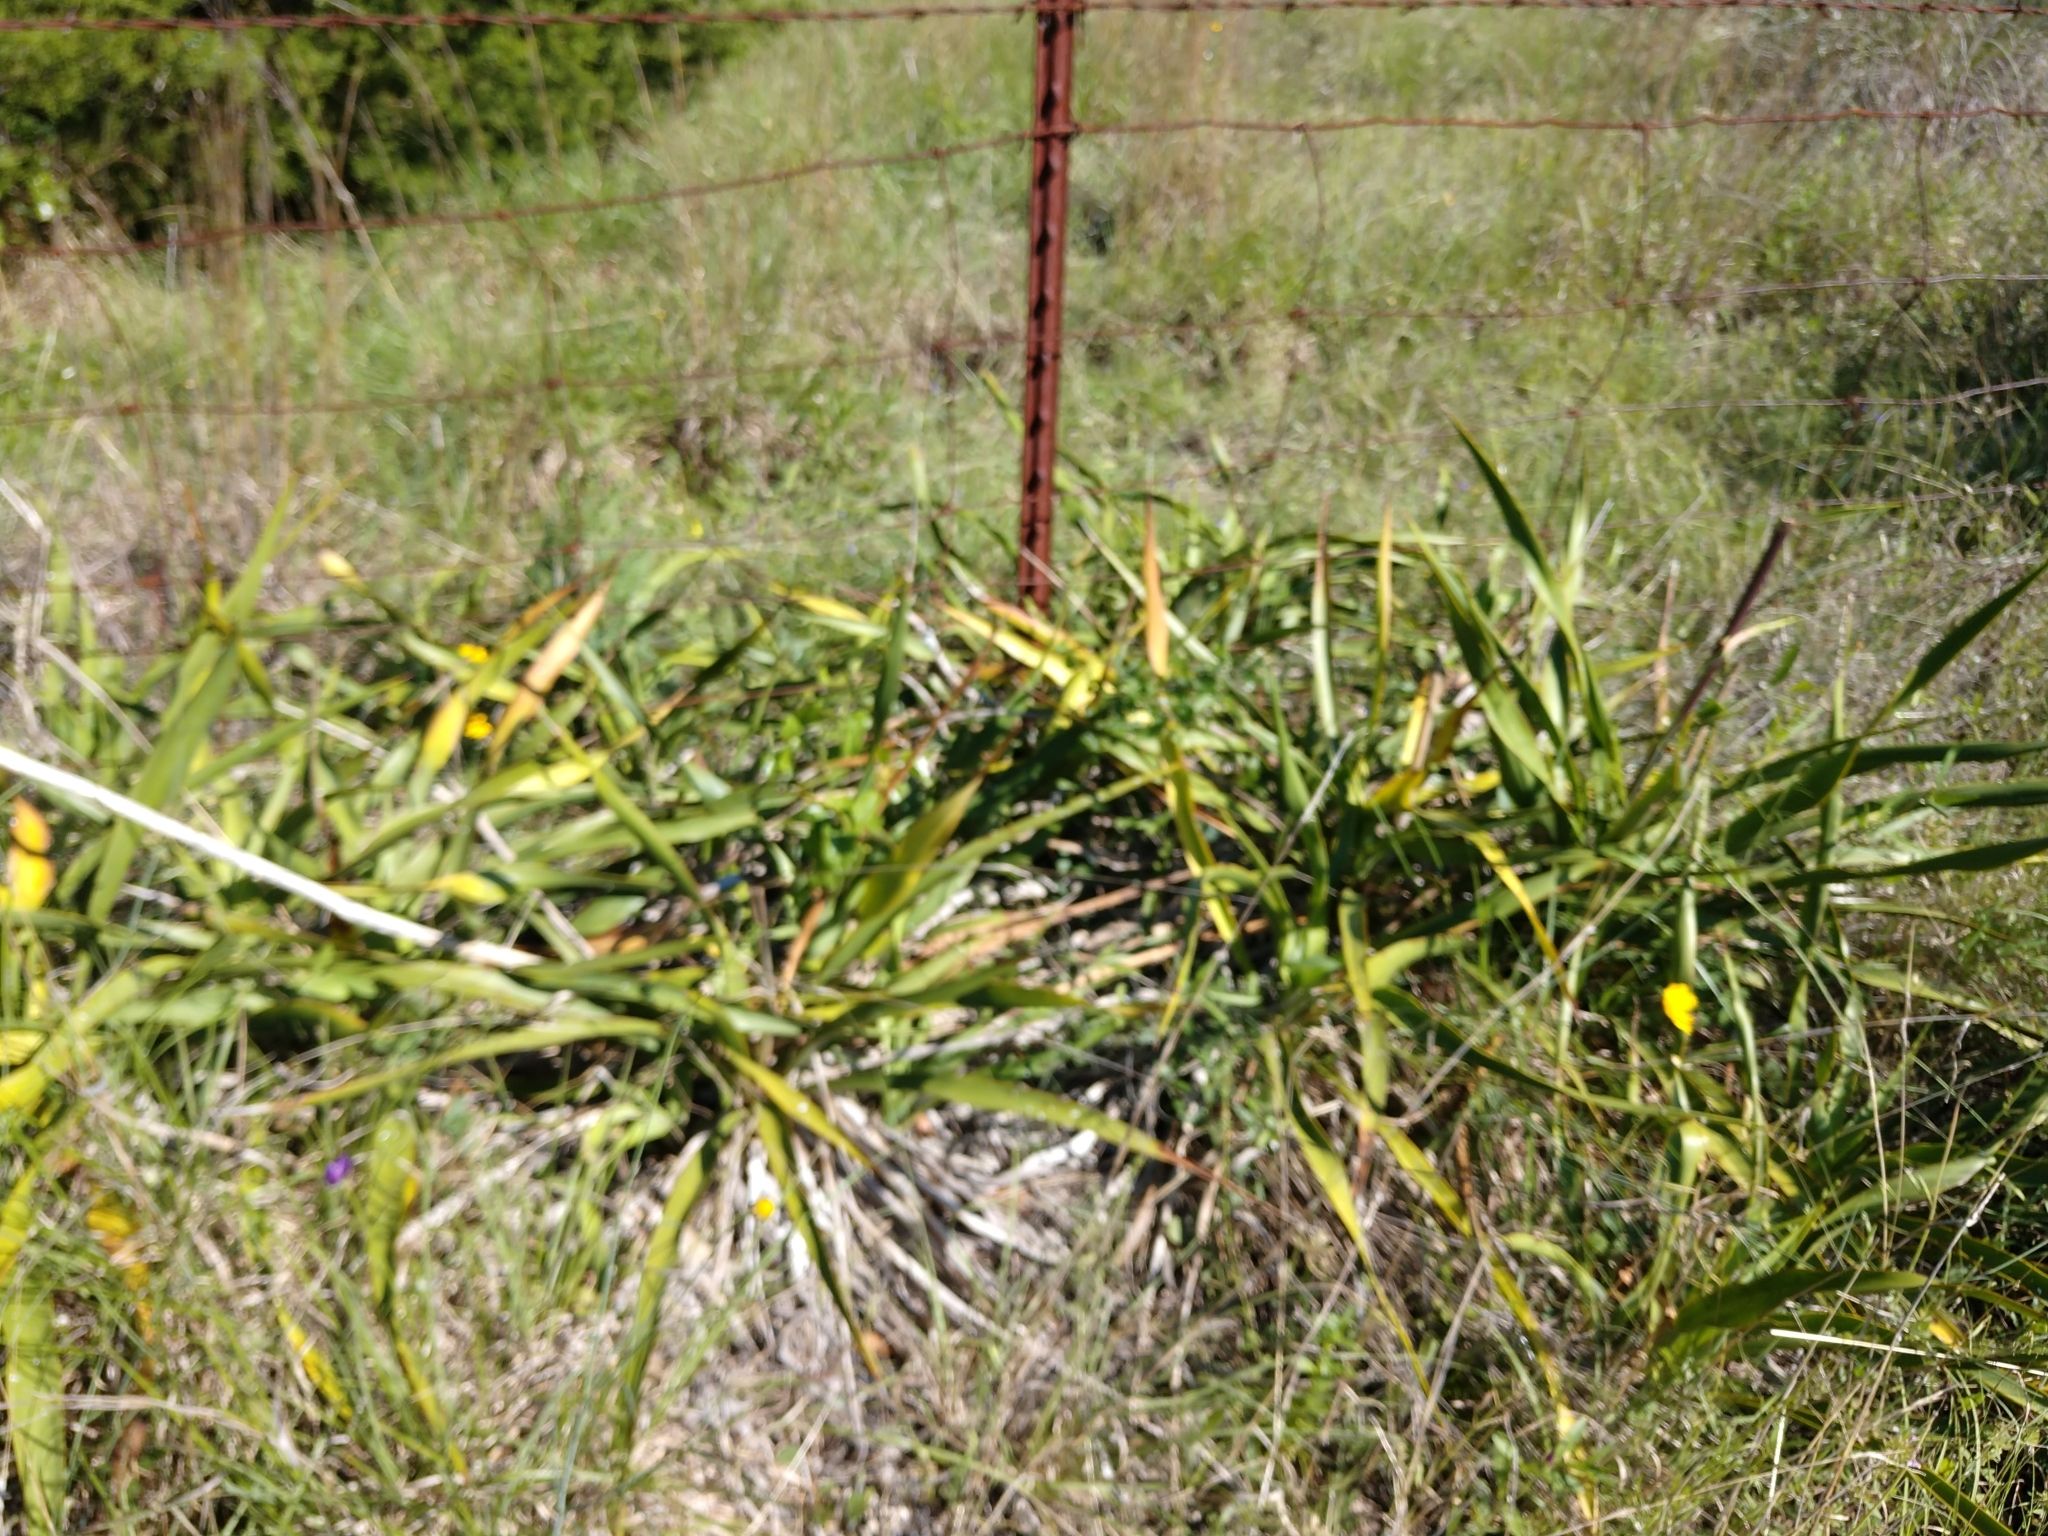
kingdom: Plantae
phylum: Tracheophyta
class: Liliopsida
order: Asparagales
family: Asparagaceae
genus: Yucca
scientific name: Yucca rupicola
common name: Twisted-leaf spanish-dagger
